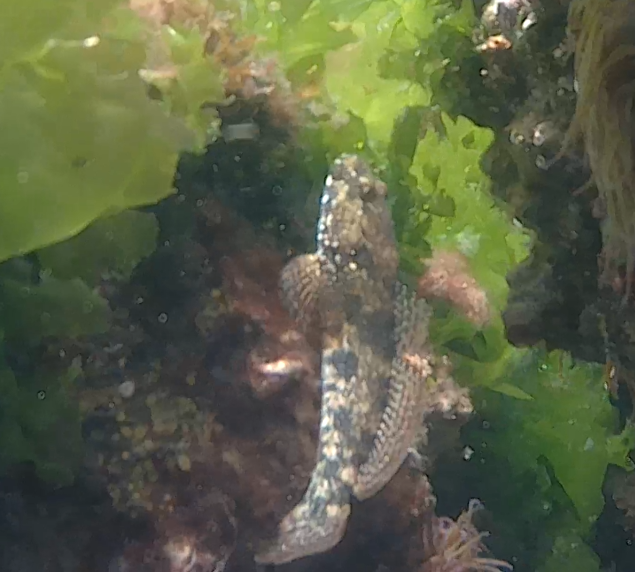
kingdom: Animalia
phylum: Chordata
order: Perciformes
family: Gobiidae
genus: Gobius
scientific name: Gobius cobitis
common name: Giant goby
